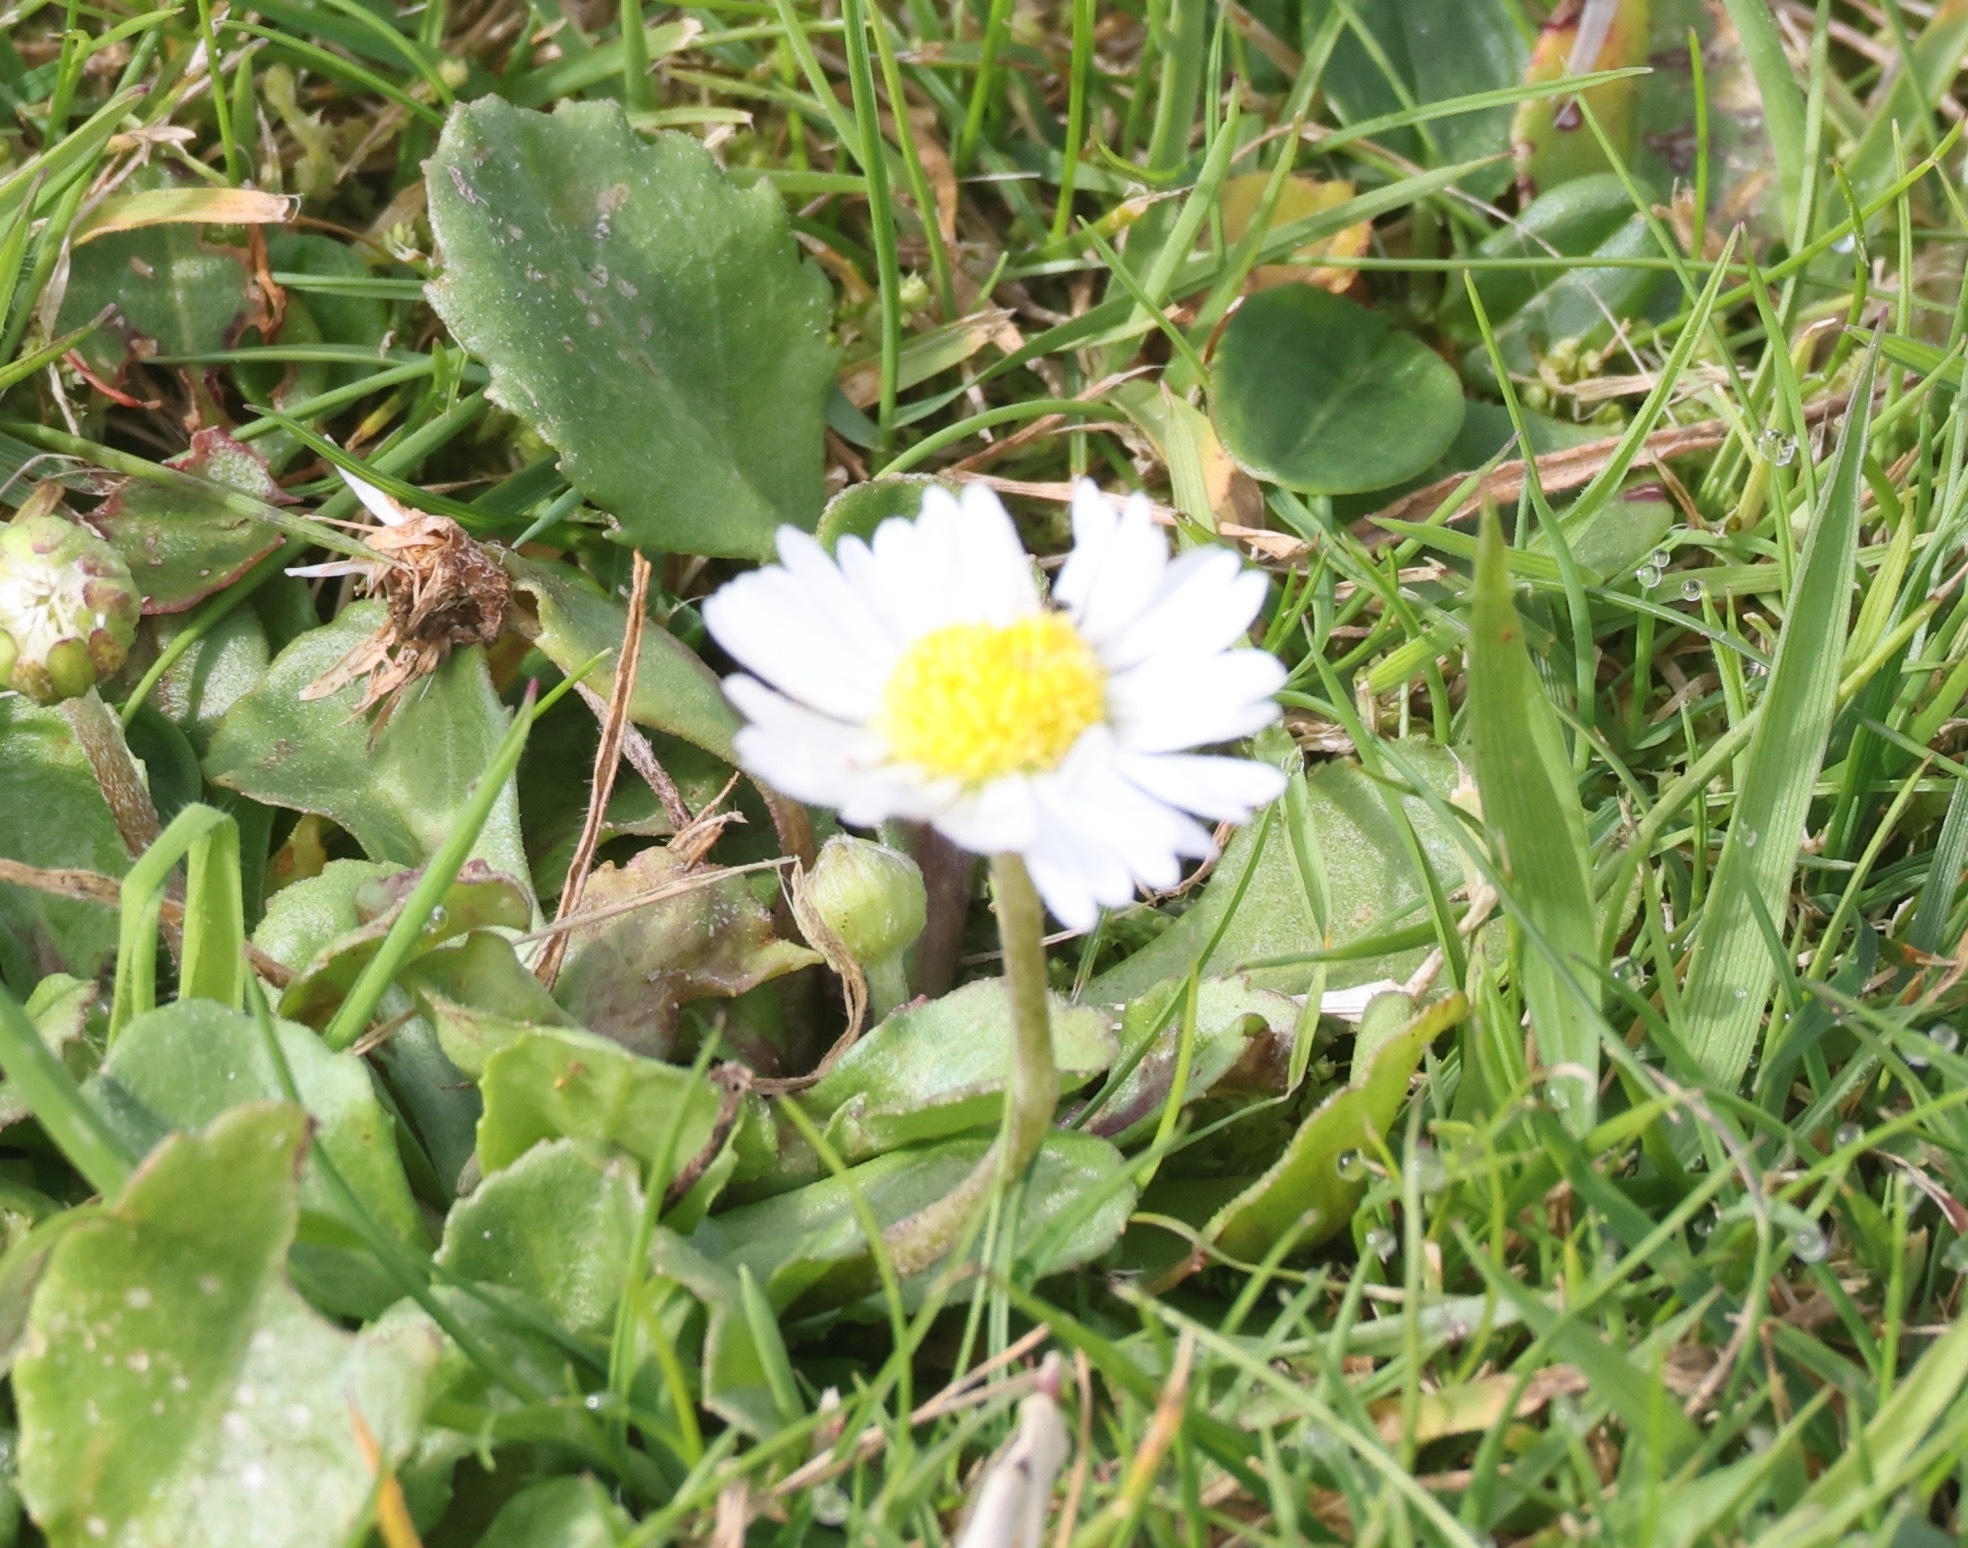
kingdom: Plantae
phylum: Tracheophyta
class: Magnoliopsida
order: Asterales
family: Asteraceae
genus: Bellis
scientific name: Bellis perennis
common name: Lawndaisy
